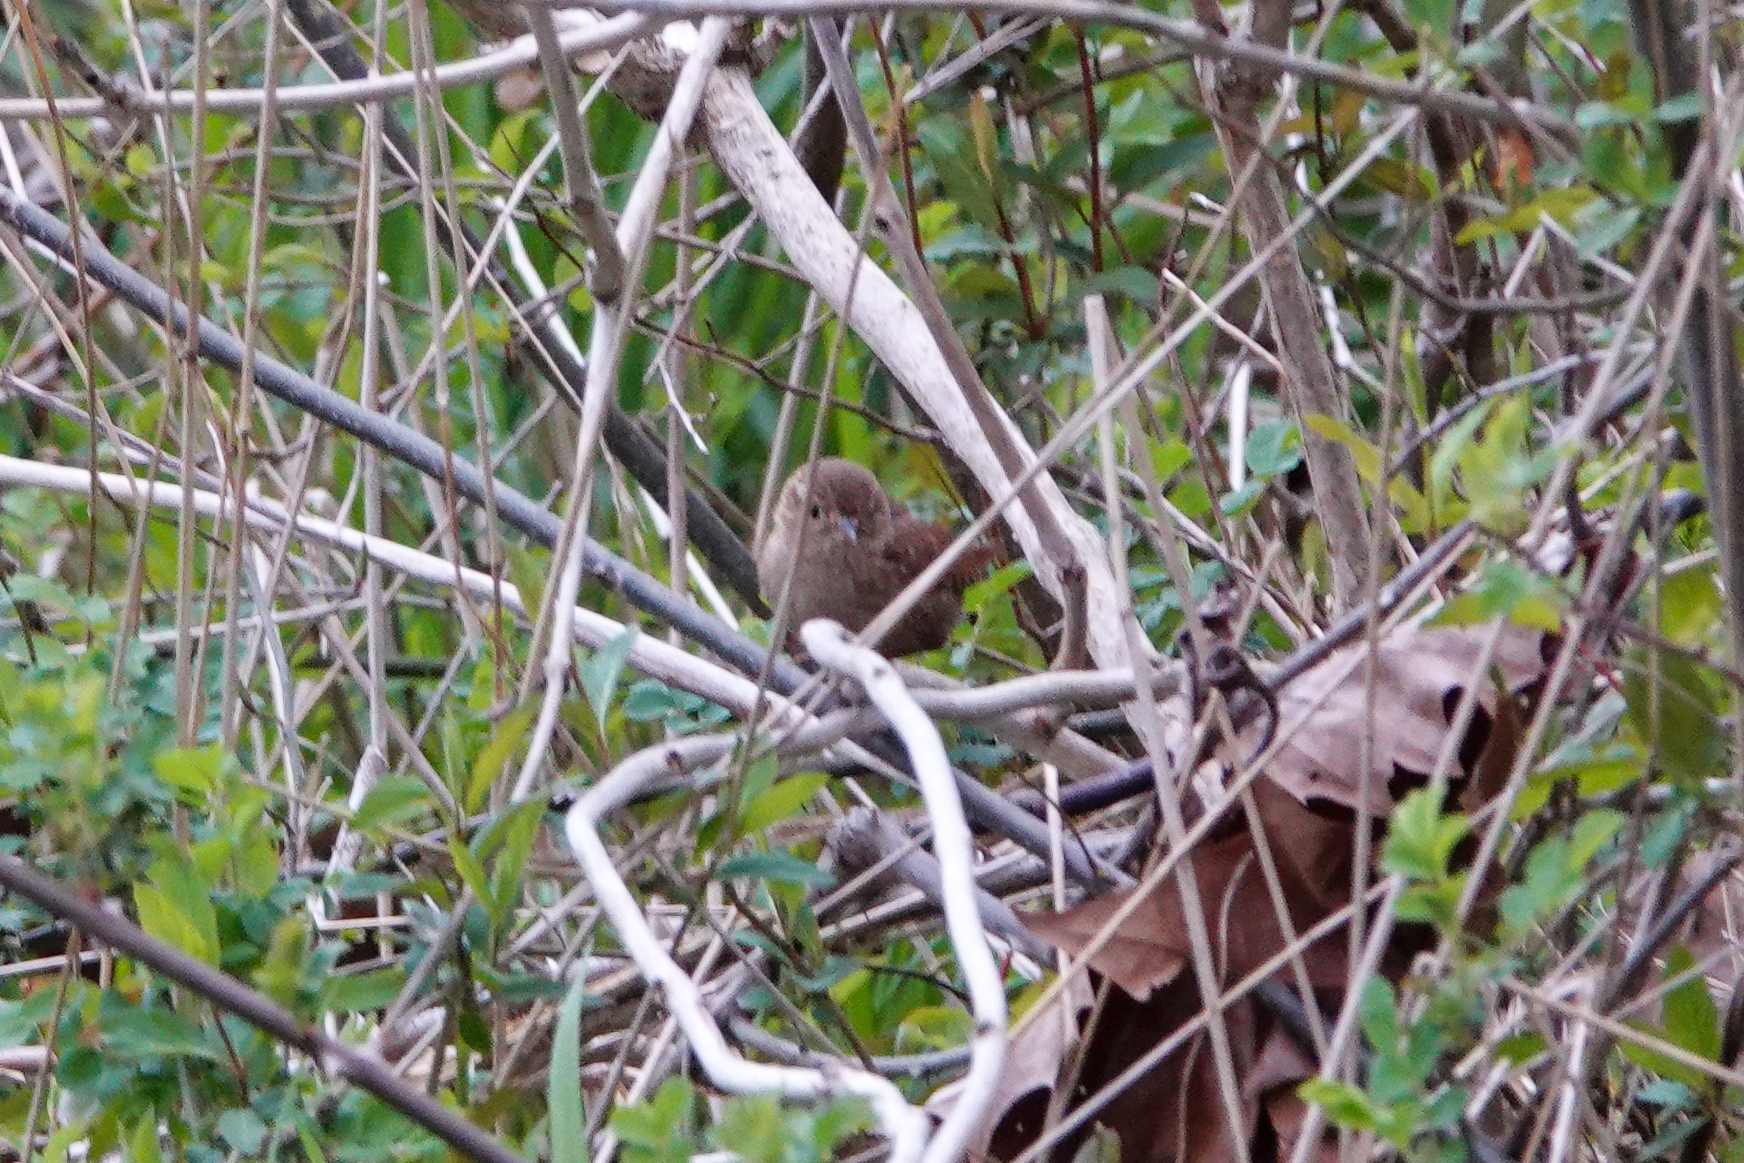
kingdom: Animalia
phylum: Chordata
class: Aves
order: Passeriformes
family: Troglodytidae
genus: Troglodytes
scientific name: Troglodytes hiemalis
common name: Winter wren
